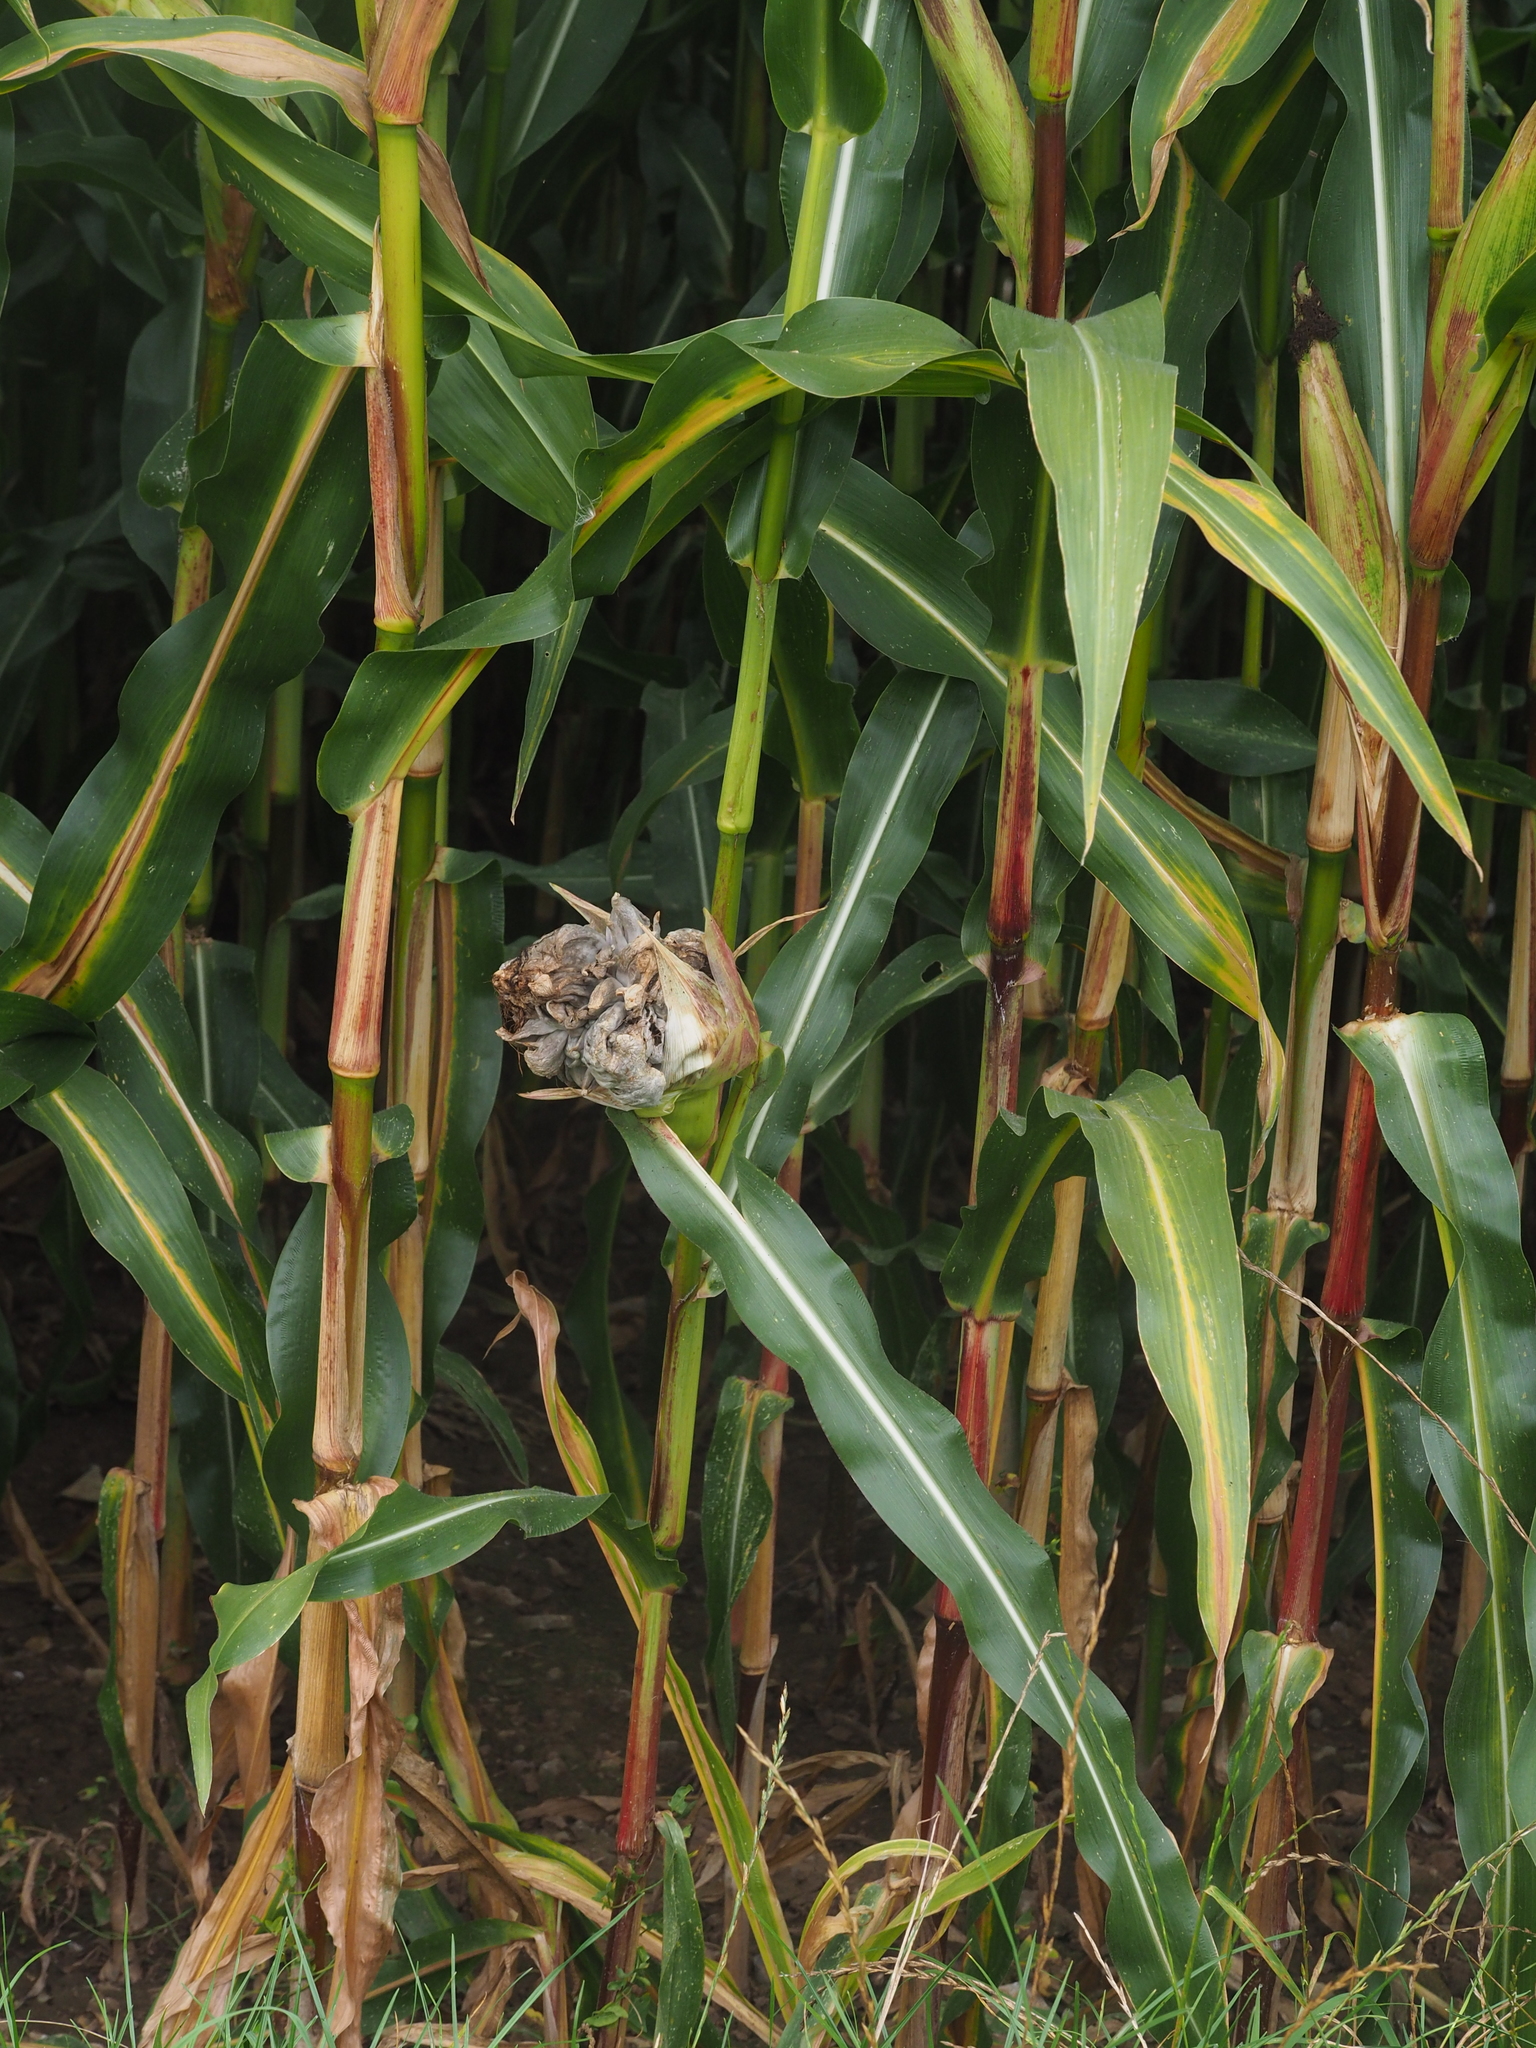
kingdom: Fungi
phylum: Basidiomycota
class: Ustilaginomycetes
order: Ustilaginales
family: Ustilaginaceae
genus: Mycosarcoma
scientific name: Mycosarcoma maydis
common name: Corn smut
